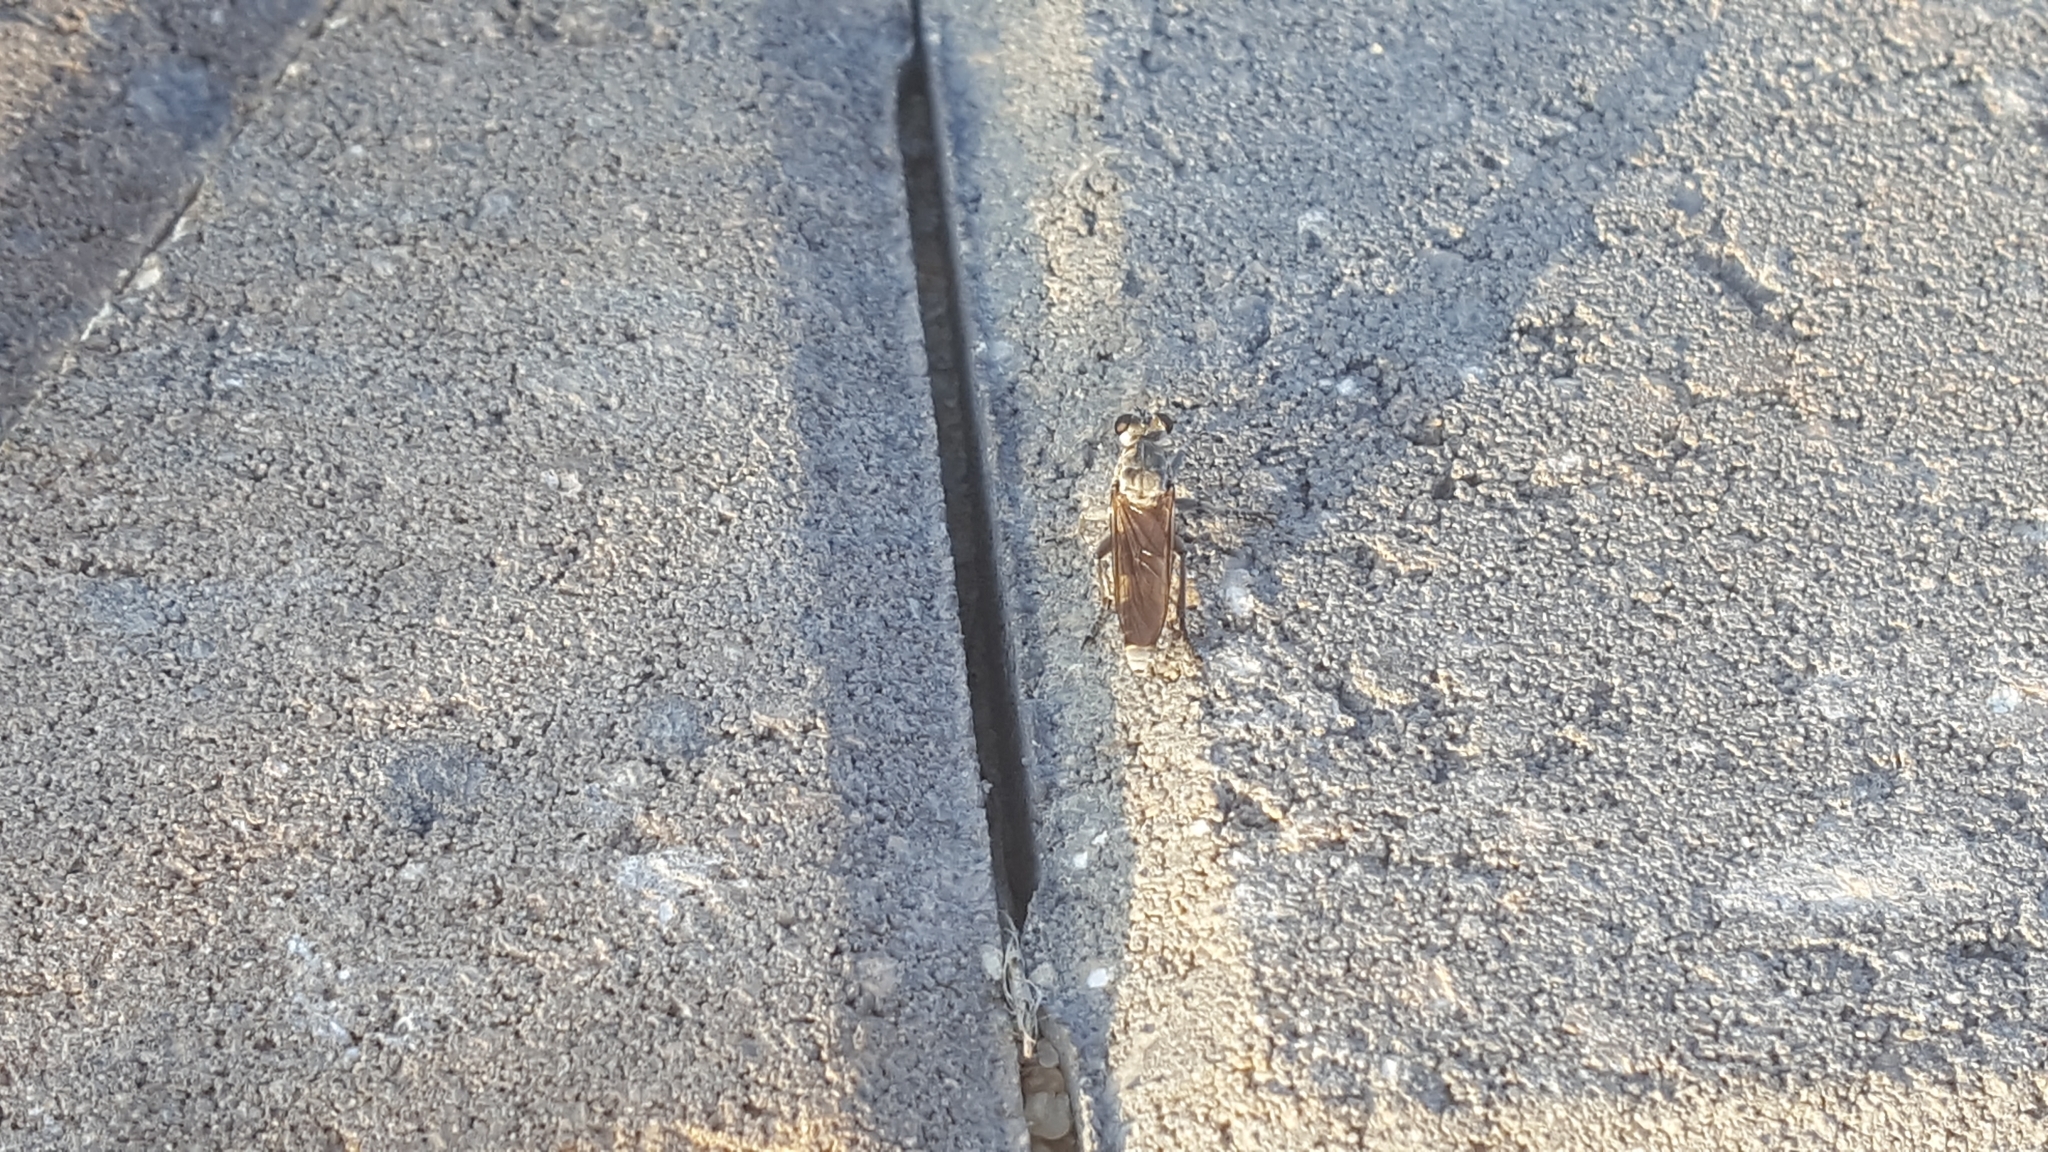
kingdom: Animalia
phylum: Arthropoda
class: Insecta
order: Diptera
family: Asilidae
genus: Stichopogon
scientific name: Stichopogon trifasciatus
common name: Three-banded robber fly
